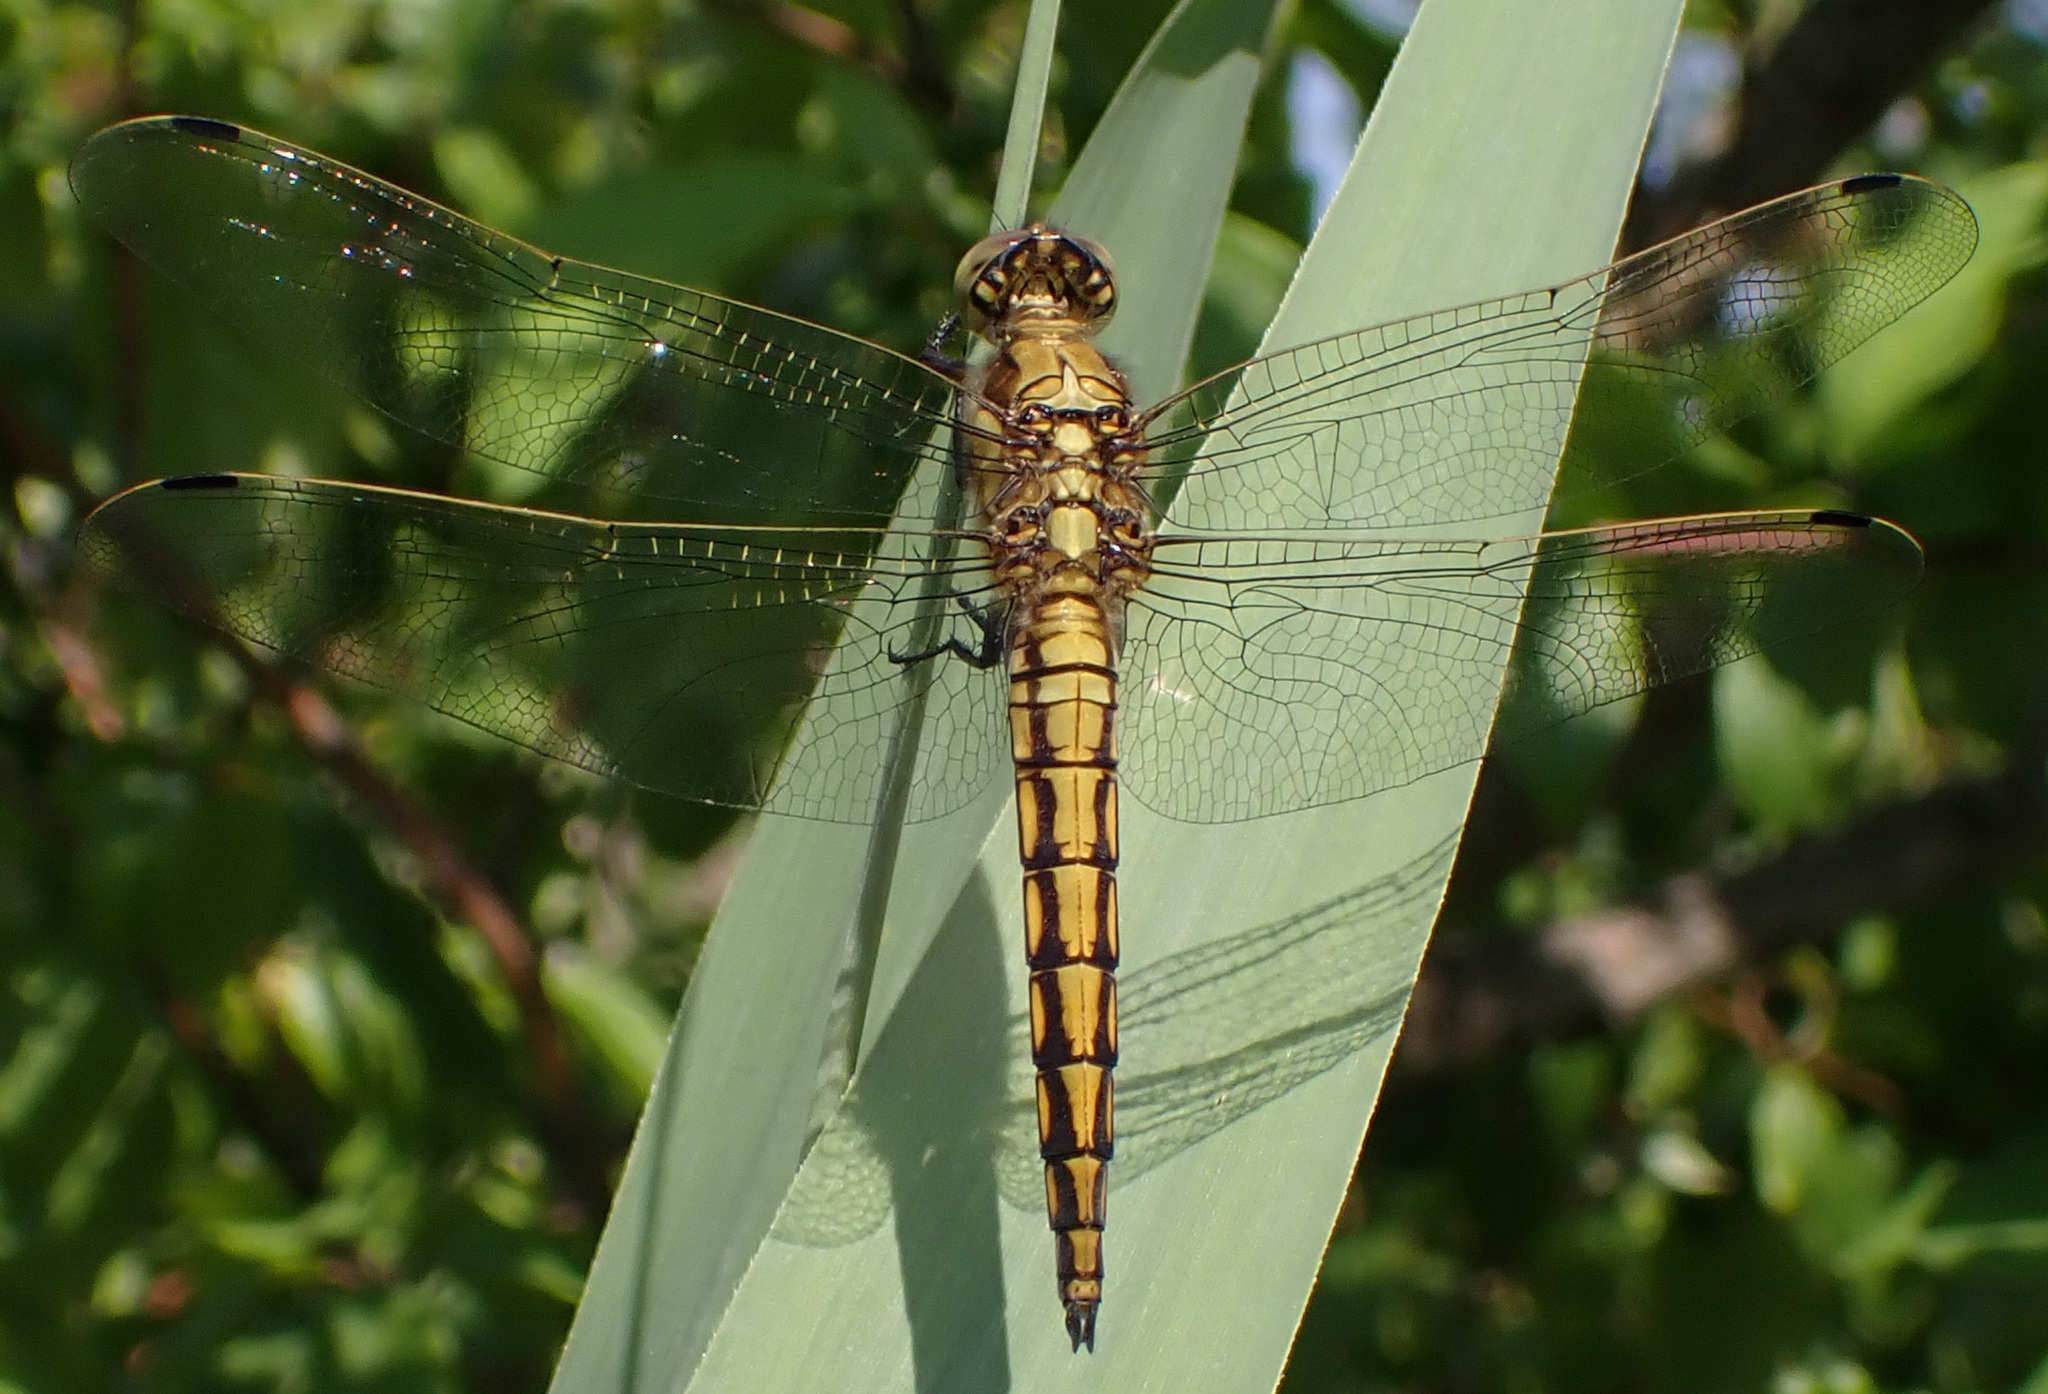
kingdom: Animalia
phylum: Arthropoda
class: Insecta
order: Odonata
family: Libellulidae
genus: Orthetrum
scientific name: Orthetrum cancellatum
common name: Black-tailed skimmer
